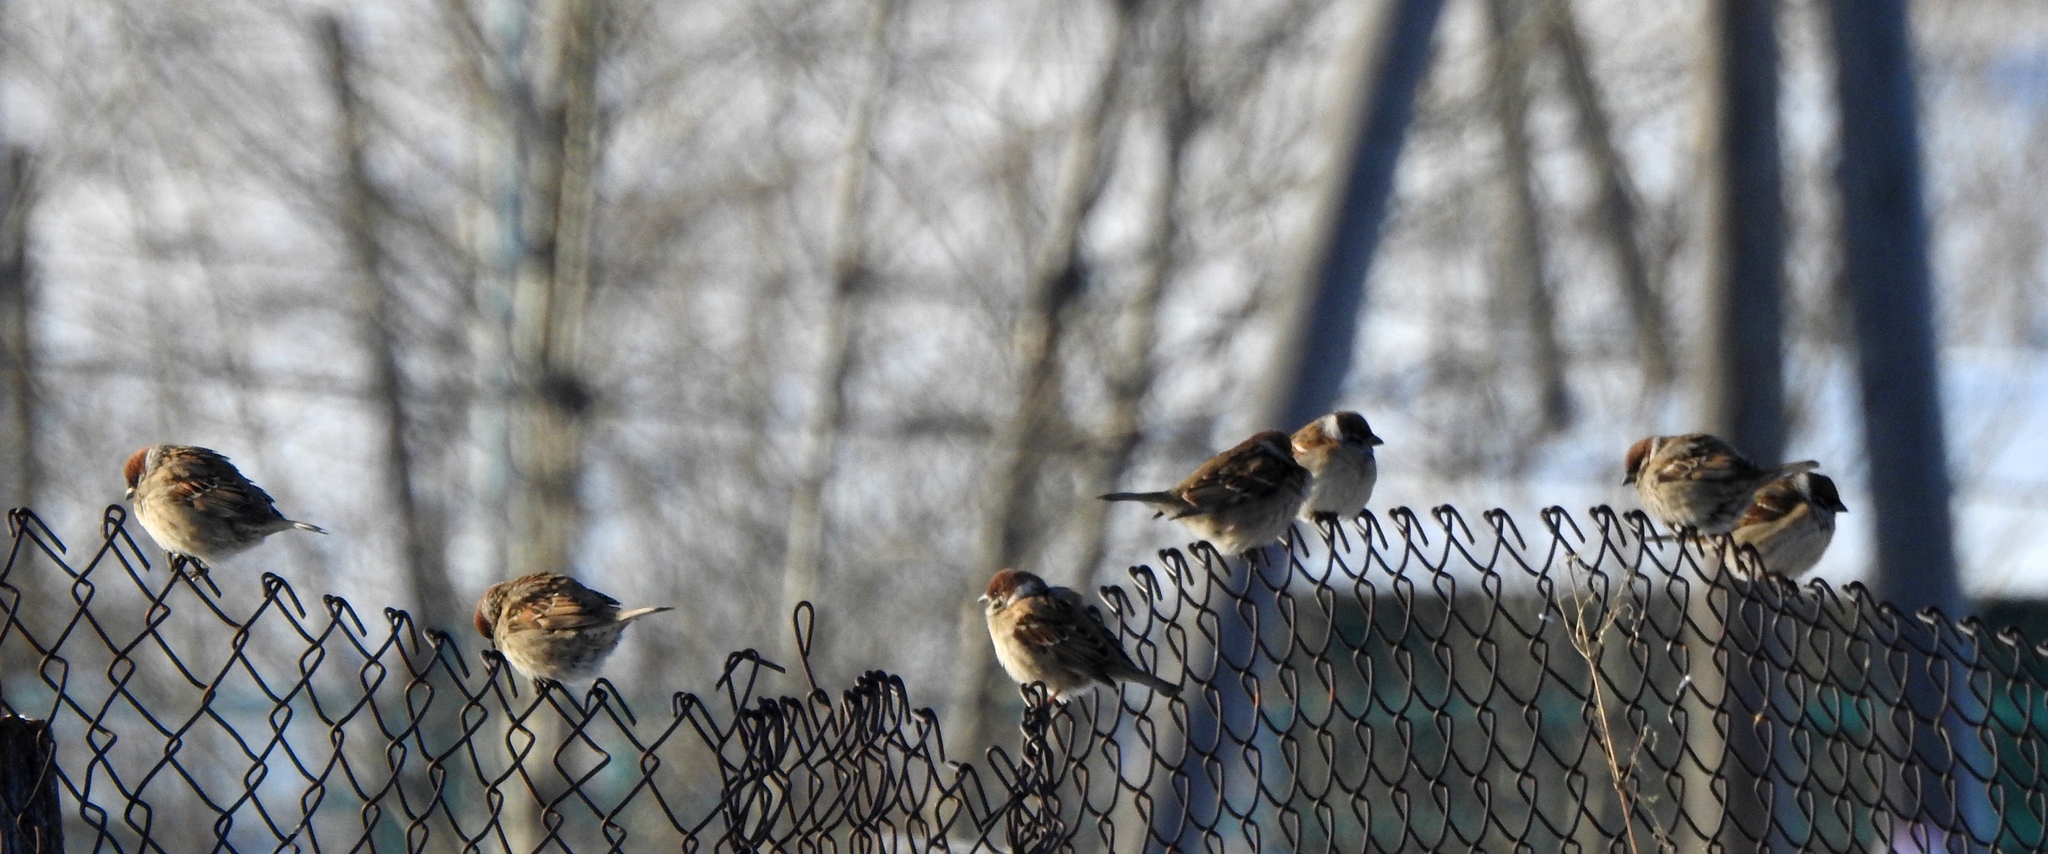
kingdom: Animalia
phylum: Chordata
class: Aves
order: Passeriformes
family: Passeridae
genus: Passer
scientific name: Passer montanus
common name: Eurasian tree sparrow
